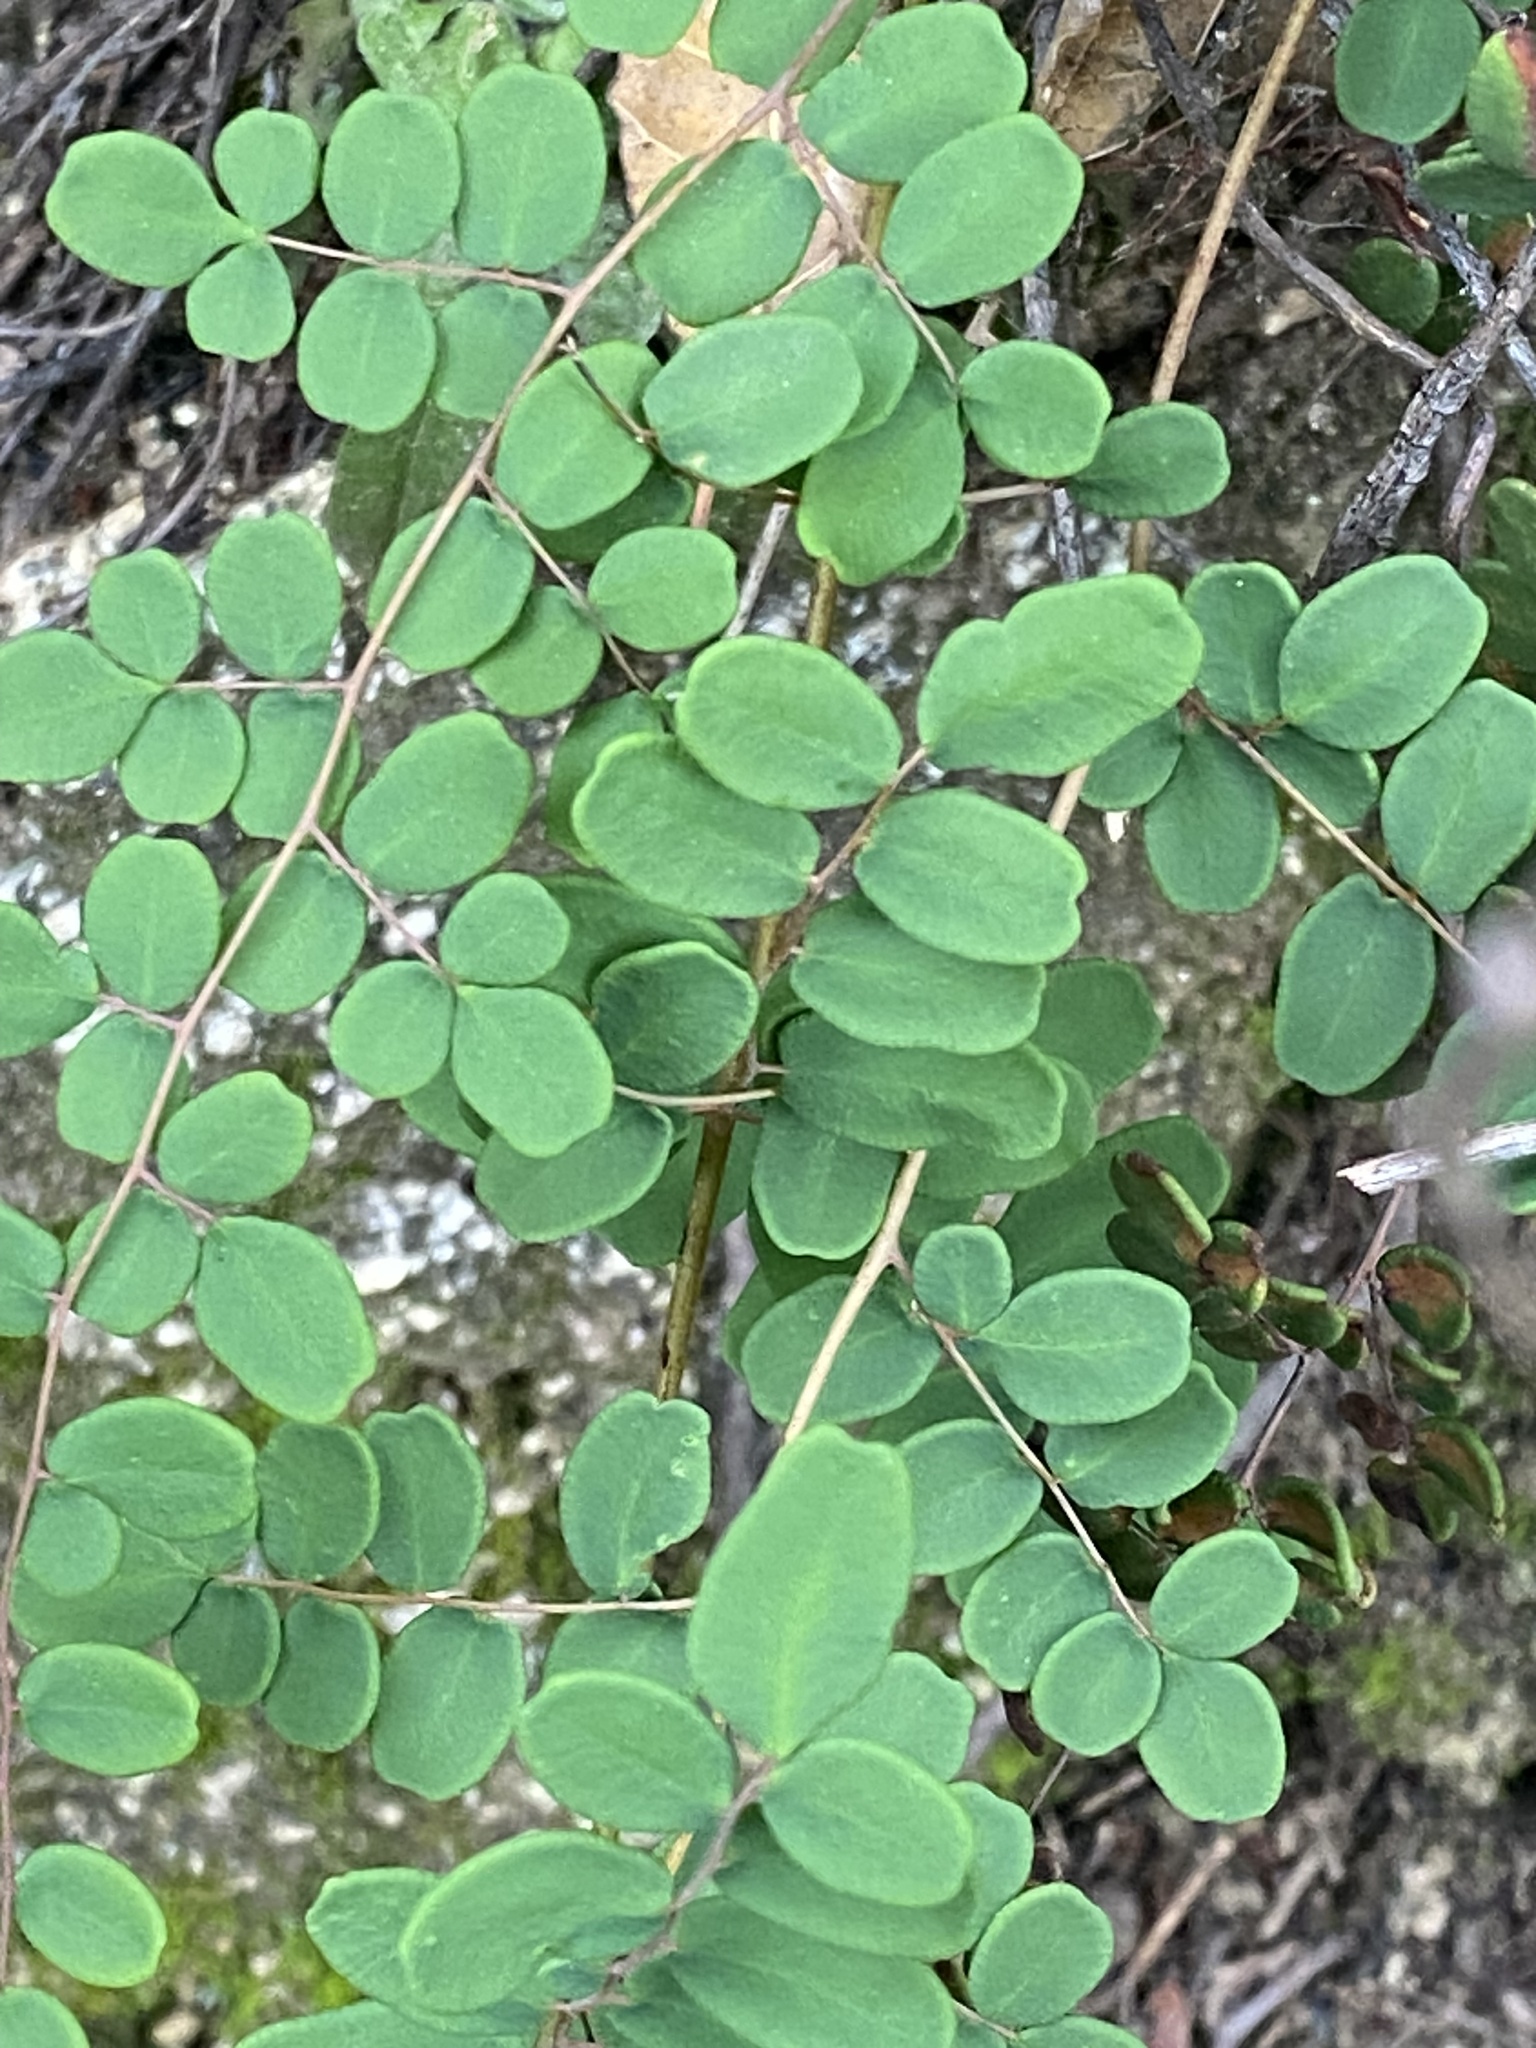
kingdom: Plantae
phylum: Tracheophyta
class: Polypodiopsida
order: Polypodiales
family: Pteridaceae
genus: Pellaea
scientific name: Pellaea andromedifolia
